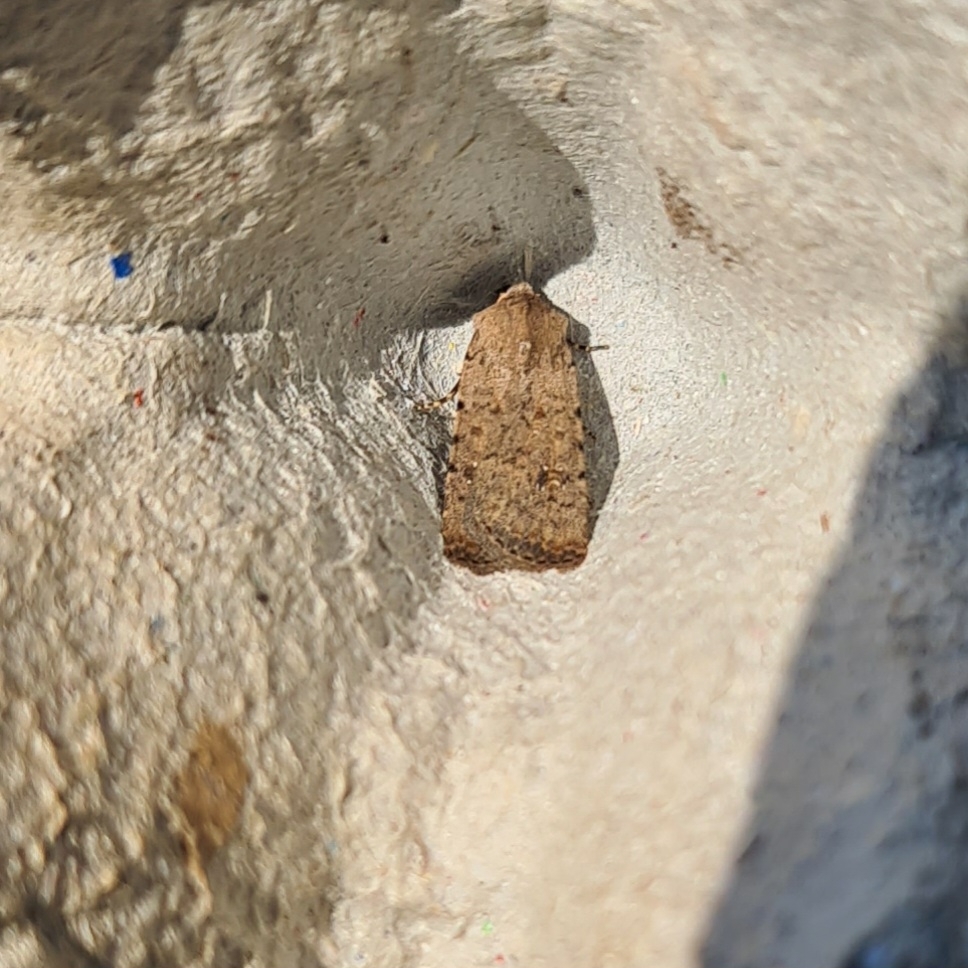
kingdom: Animalia
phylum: Arthropoda
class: Insecta
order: Lepidoptera
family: Noctuidae
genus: Caradrina
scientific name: Caradrina clavipalpis
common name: Pale mottled willow
